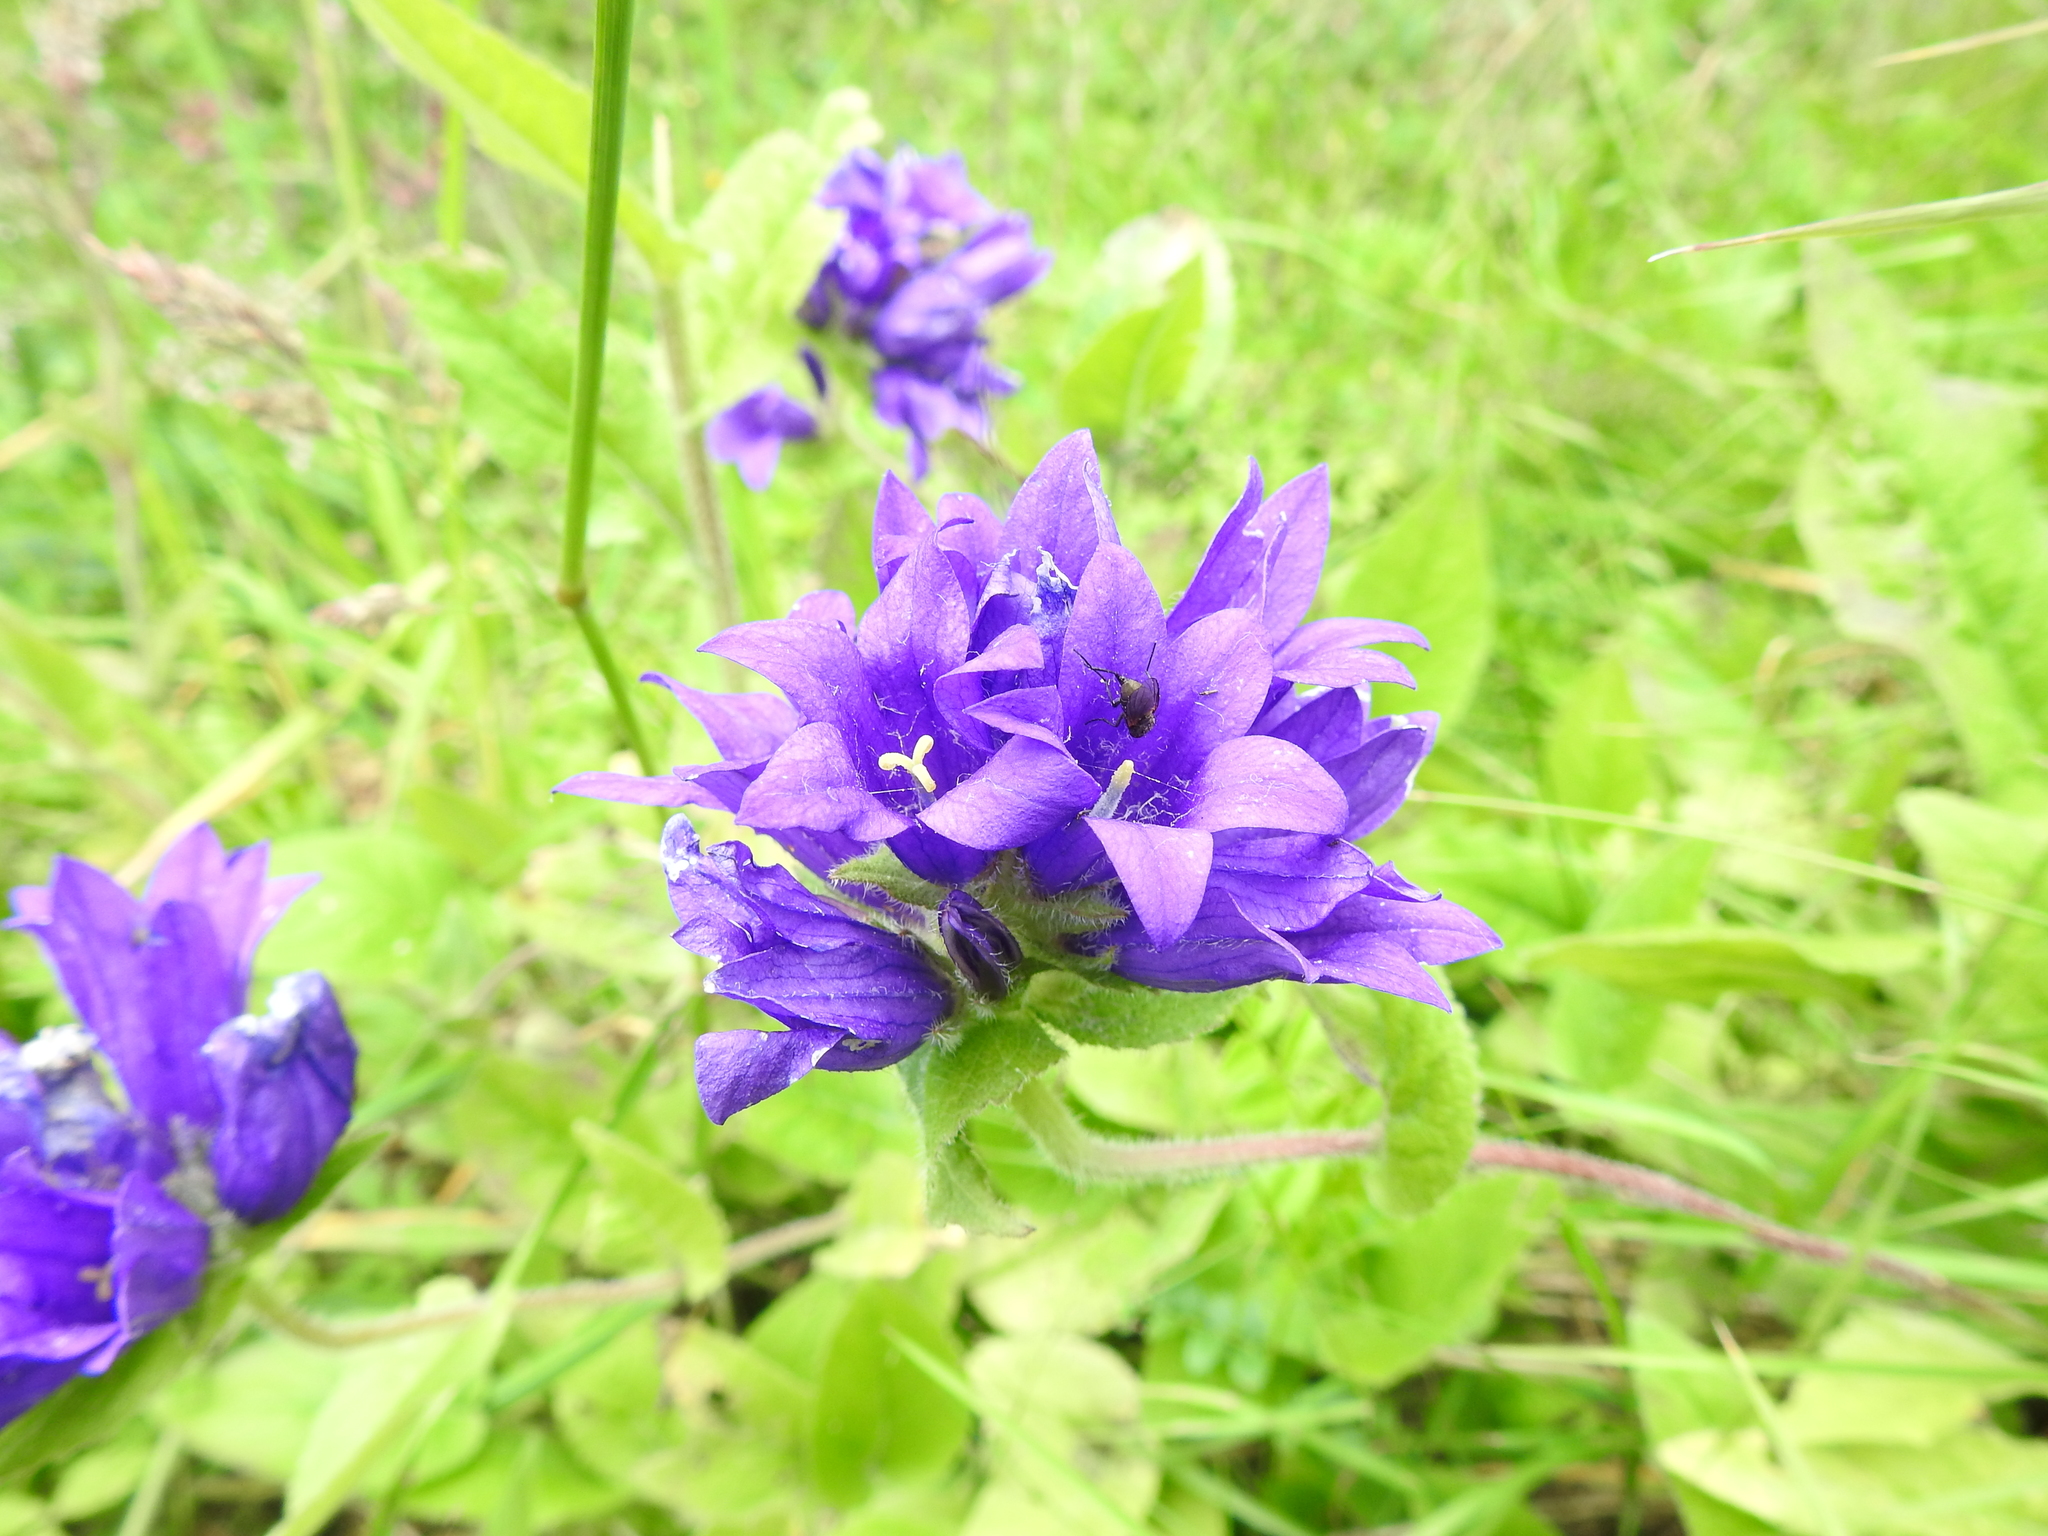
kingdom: Plantae
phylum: Tracheophyta
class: Magnoliopsida
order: Asterales
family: Campanulaceae
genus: Campanula
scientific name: Campanula glomerata
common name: Clustered bellflower
